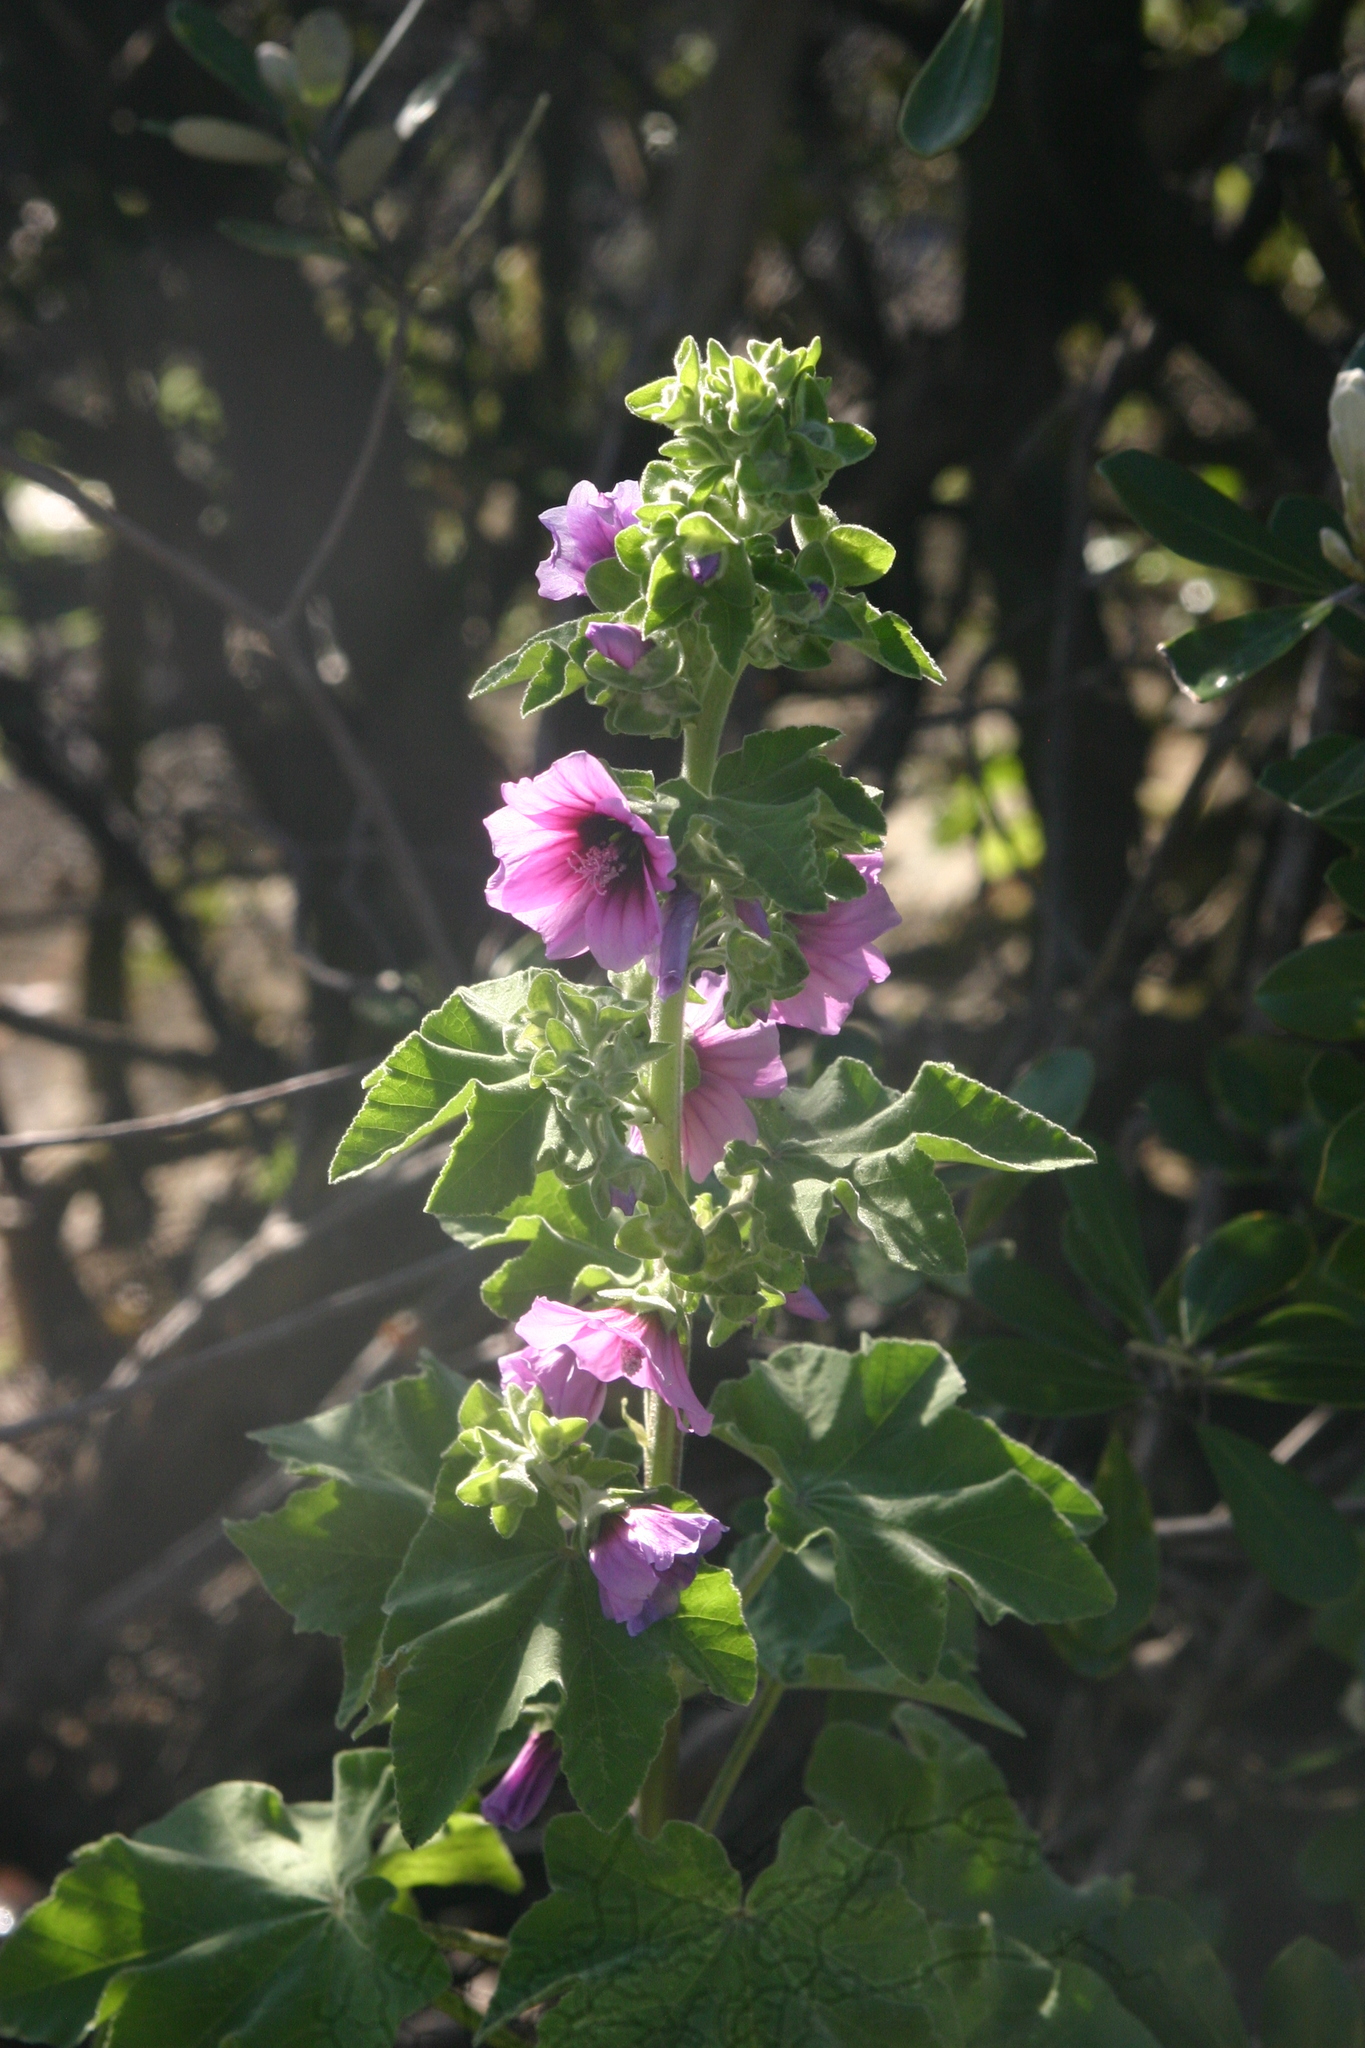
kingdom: Plantae
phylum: Tracheophyta
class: Magnoliopsida
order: Malvales
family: Malvaceae
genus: Malva
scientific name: Malva arborea
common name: Tree mallow
